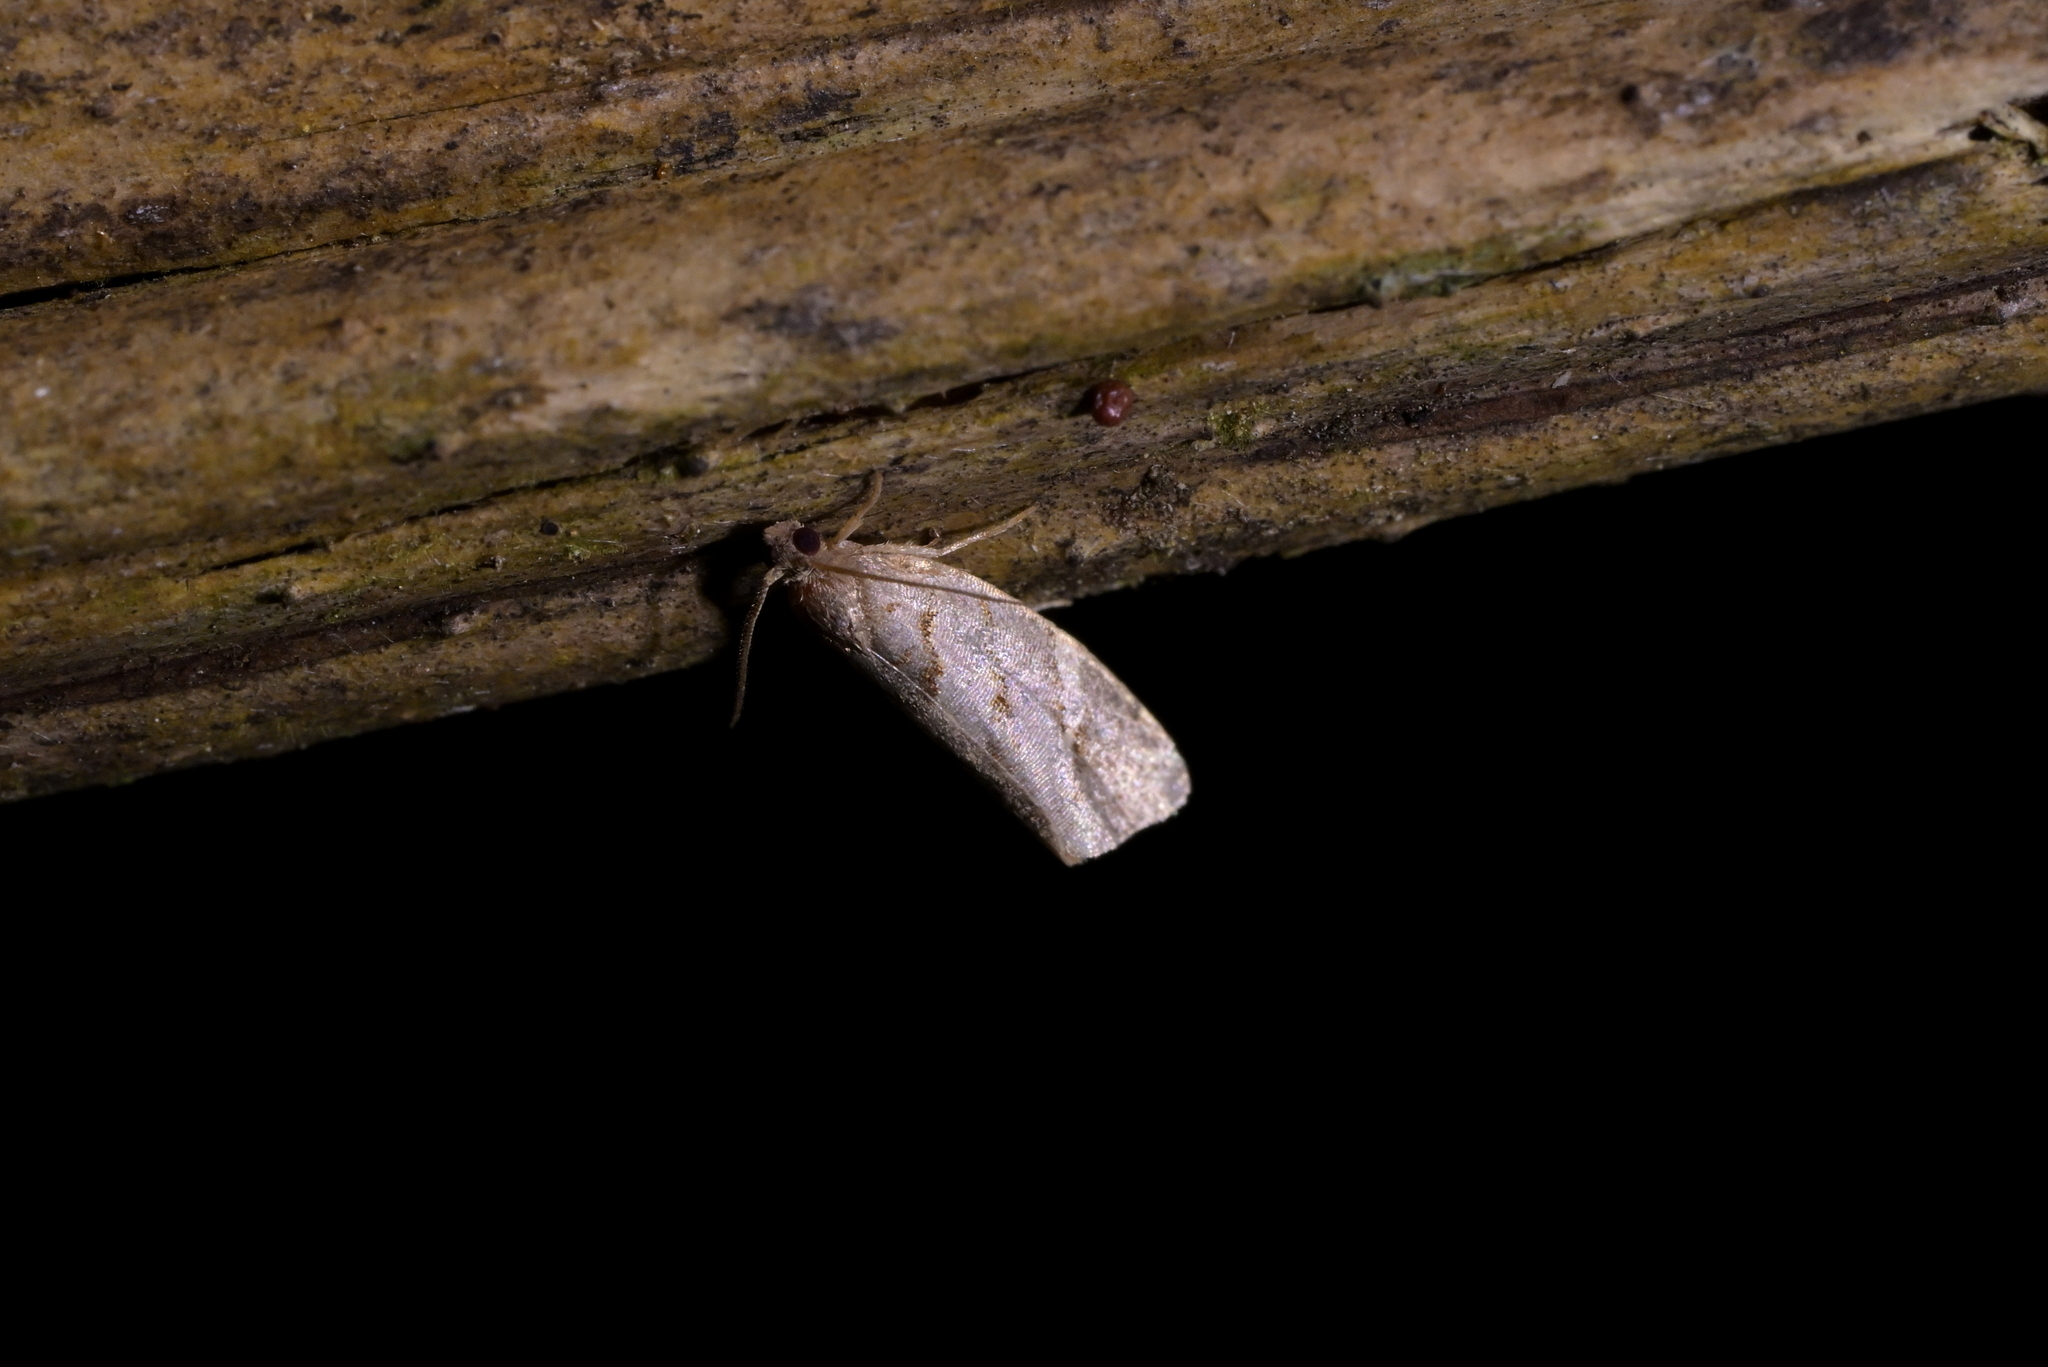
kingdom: Animalia
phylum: Arthropoda
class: Insecta
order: Lepidoptera
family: Tortricidae
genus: Ecclitica
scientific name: Ecclitica torogramma
